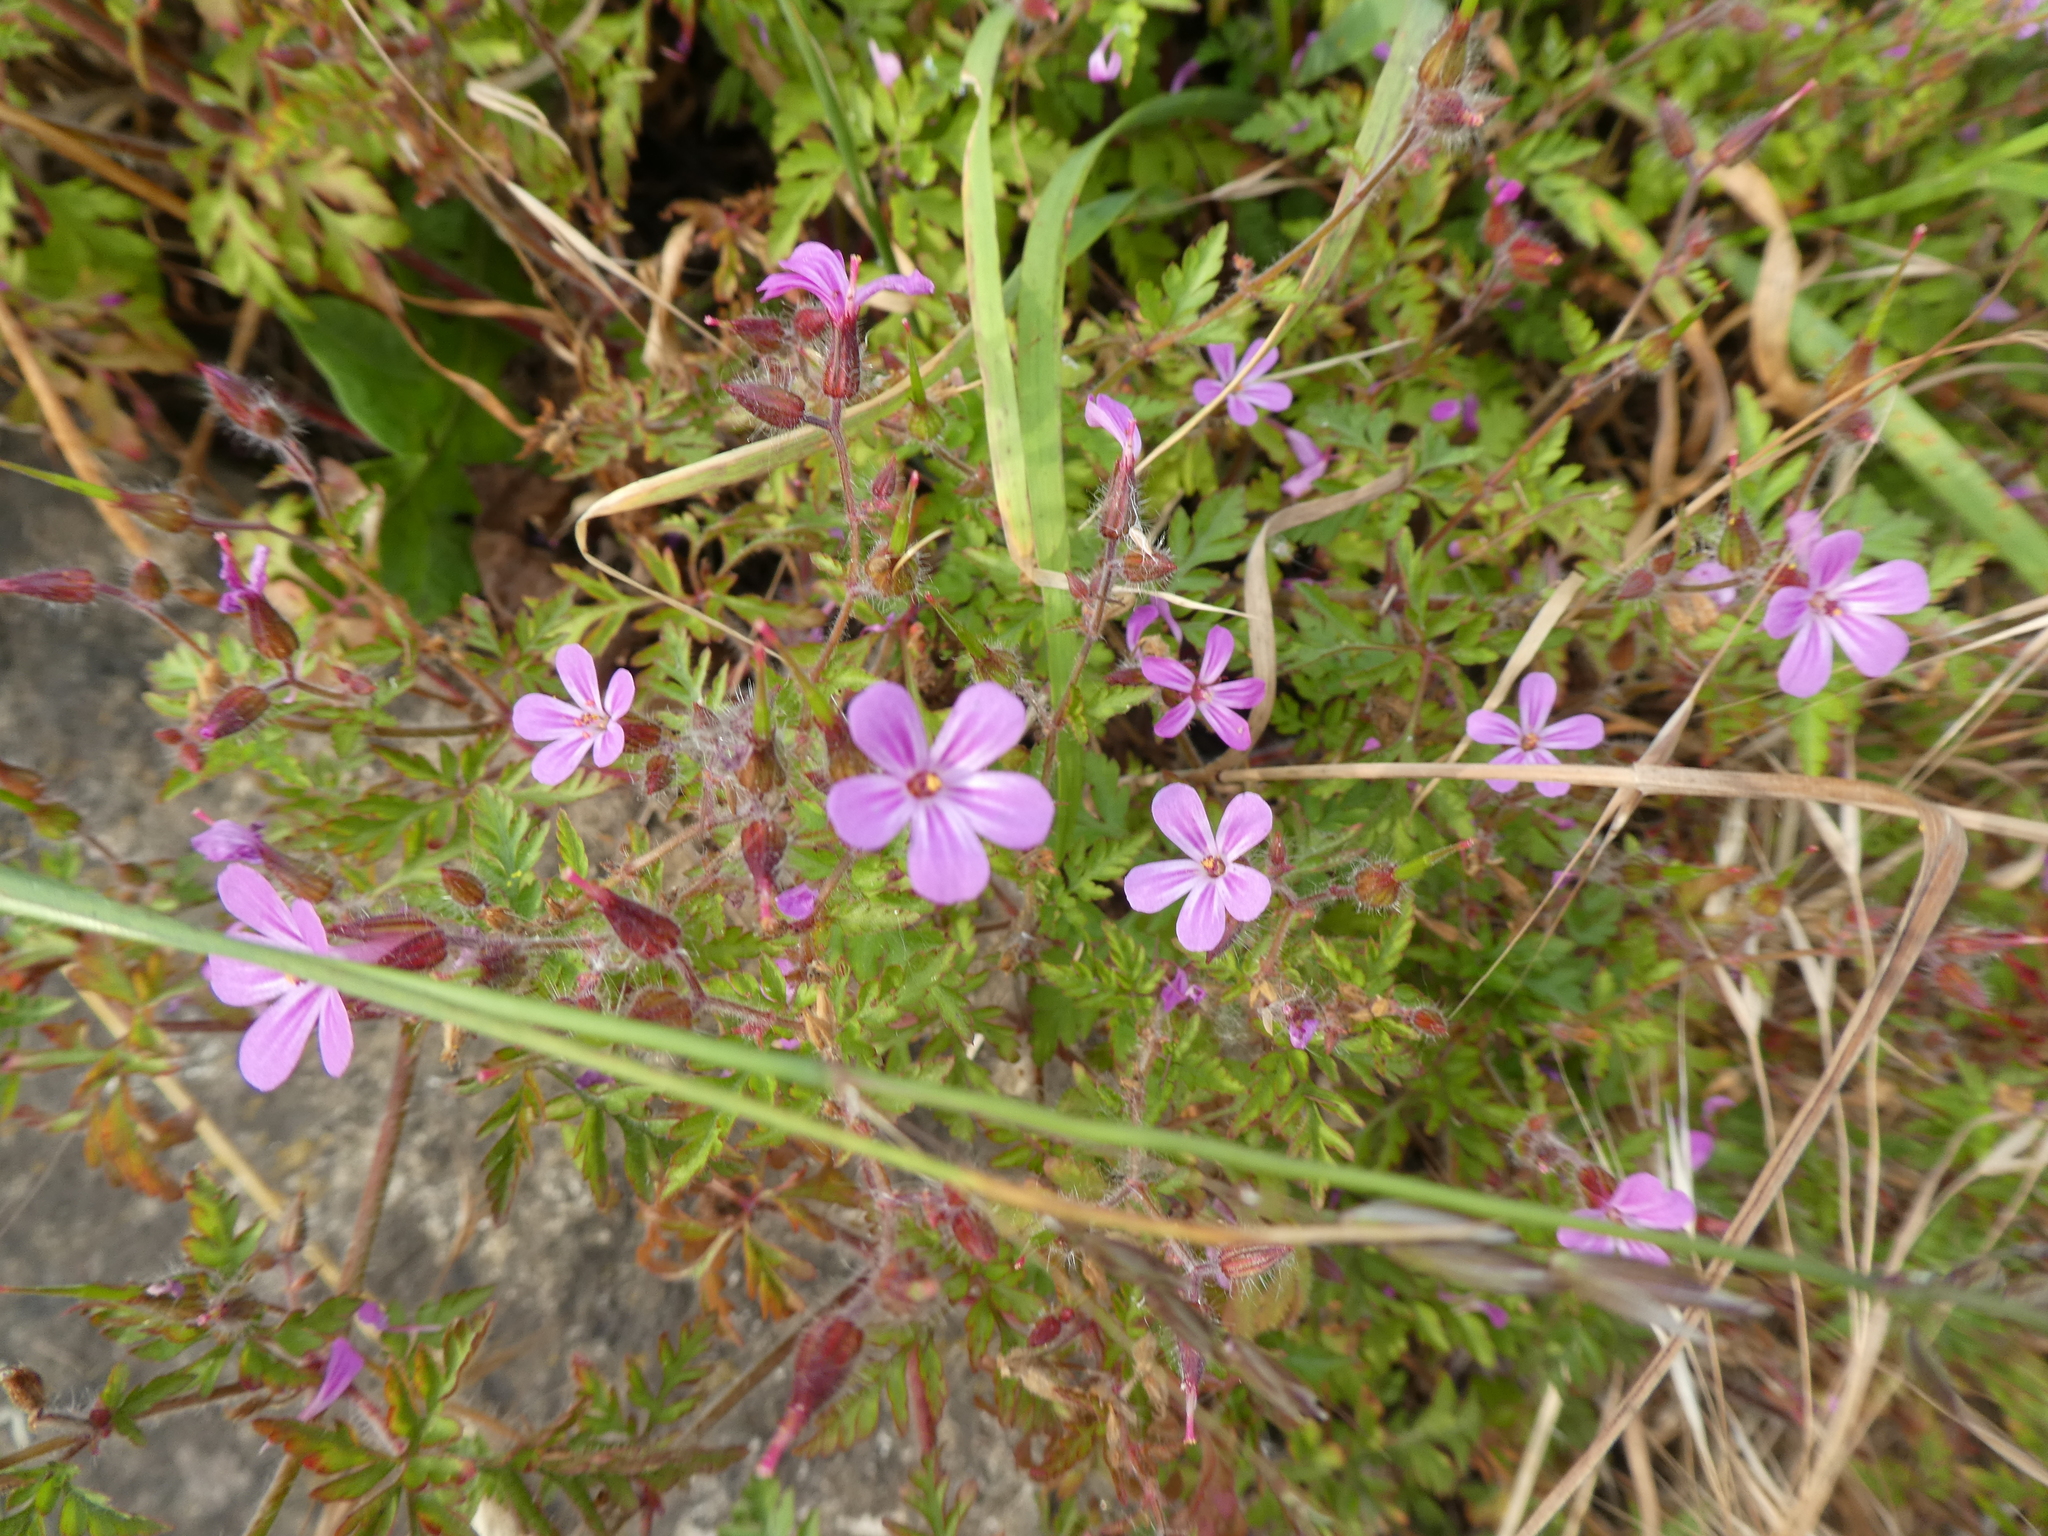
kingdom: Plantae
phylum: Tracheophyta
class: Magnoliopsida
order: Geraniales
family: Geraniaceae
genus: Geranium
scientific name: Geranium robertianum
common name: Herb-robert
